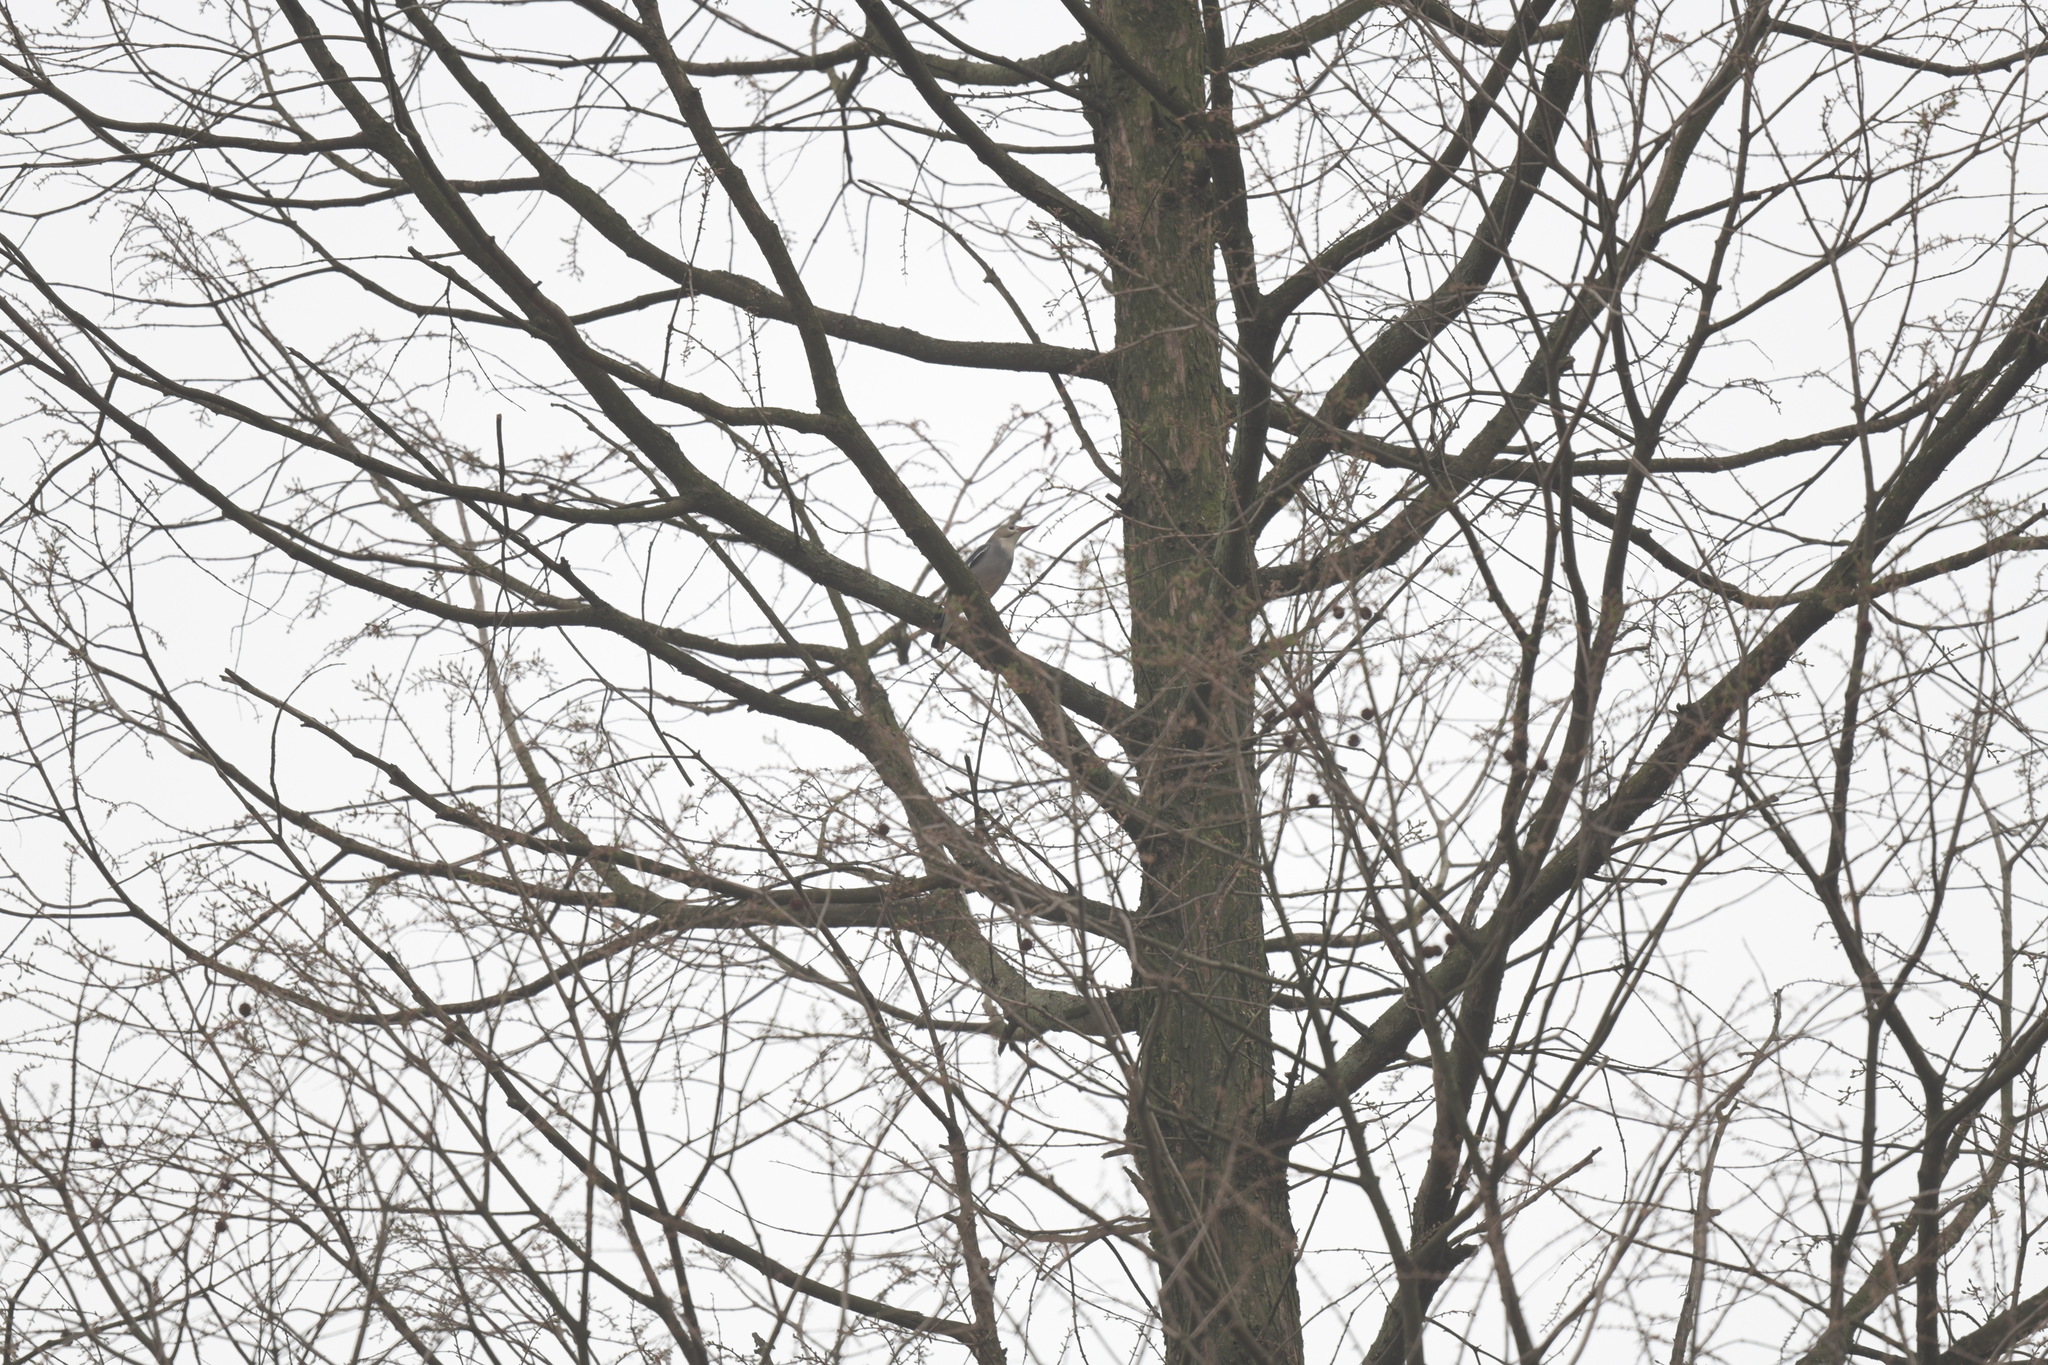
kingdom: Animalia
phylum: Chordata
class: Aves
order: Passeriformes
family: Sturnidae
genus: Spodiopsar
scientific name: Spodiopsar sericeus
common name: Red-billed starling
